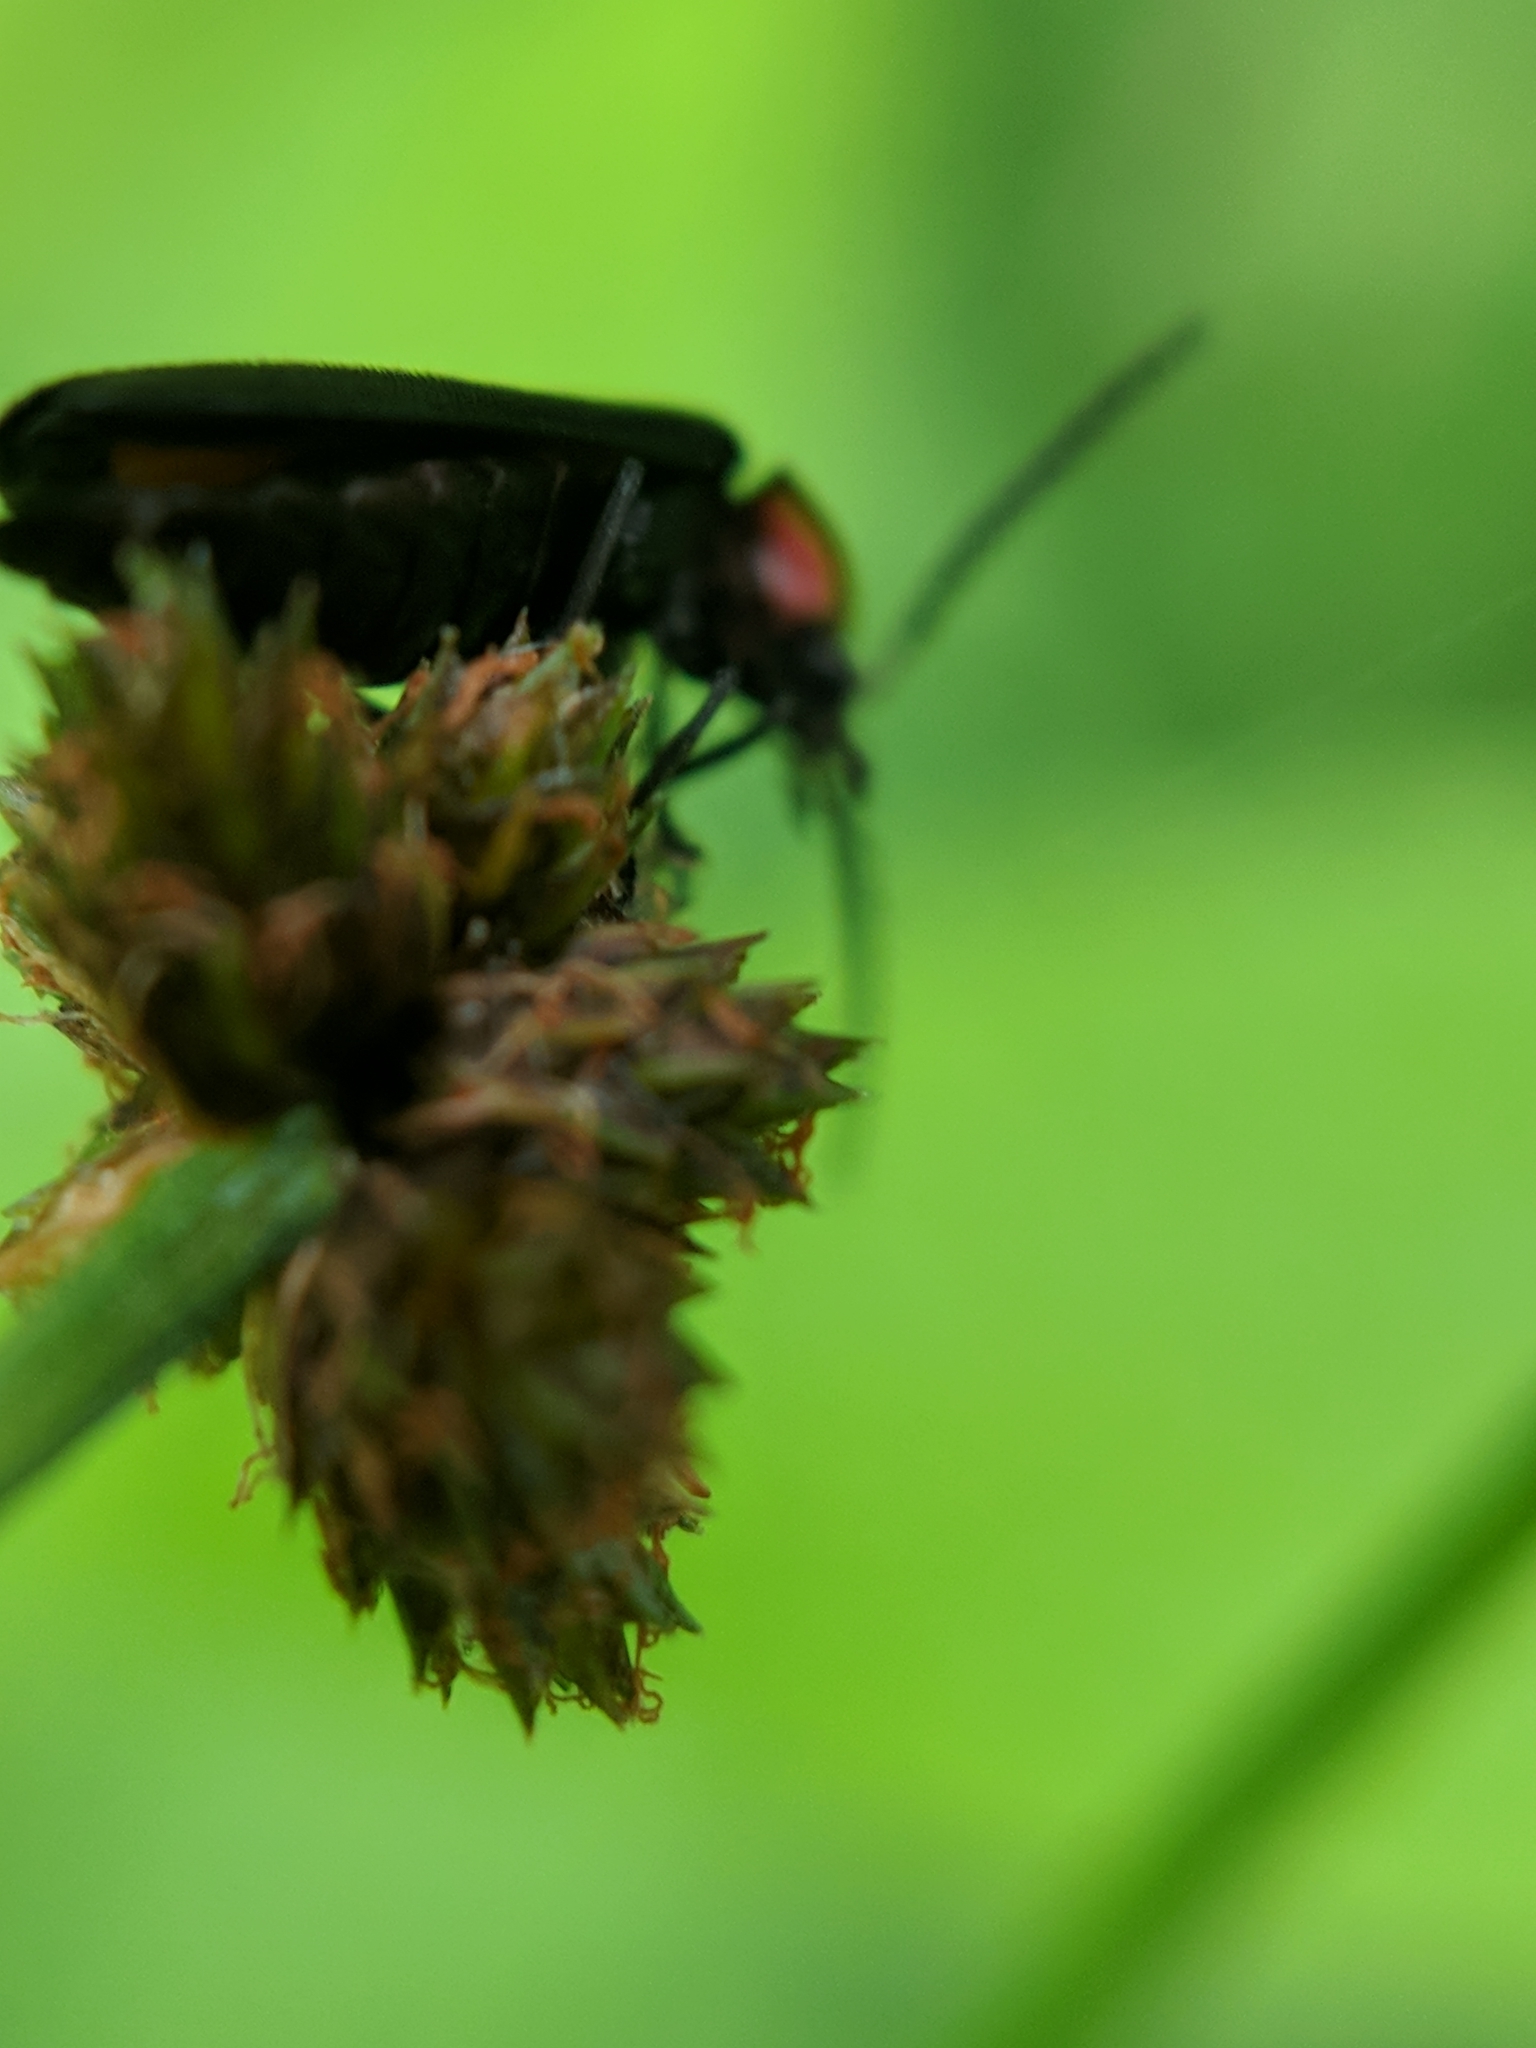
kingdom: Animalia
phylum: Arthropoda
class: Insecta
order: Coleoptera
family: Lampyridae
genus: Pyropyga
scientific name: Pyropyga nigricans
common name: Dark firefly
